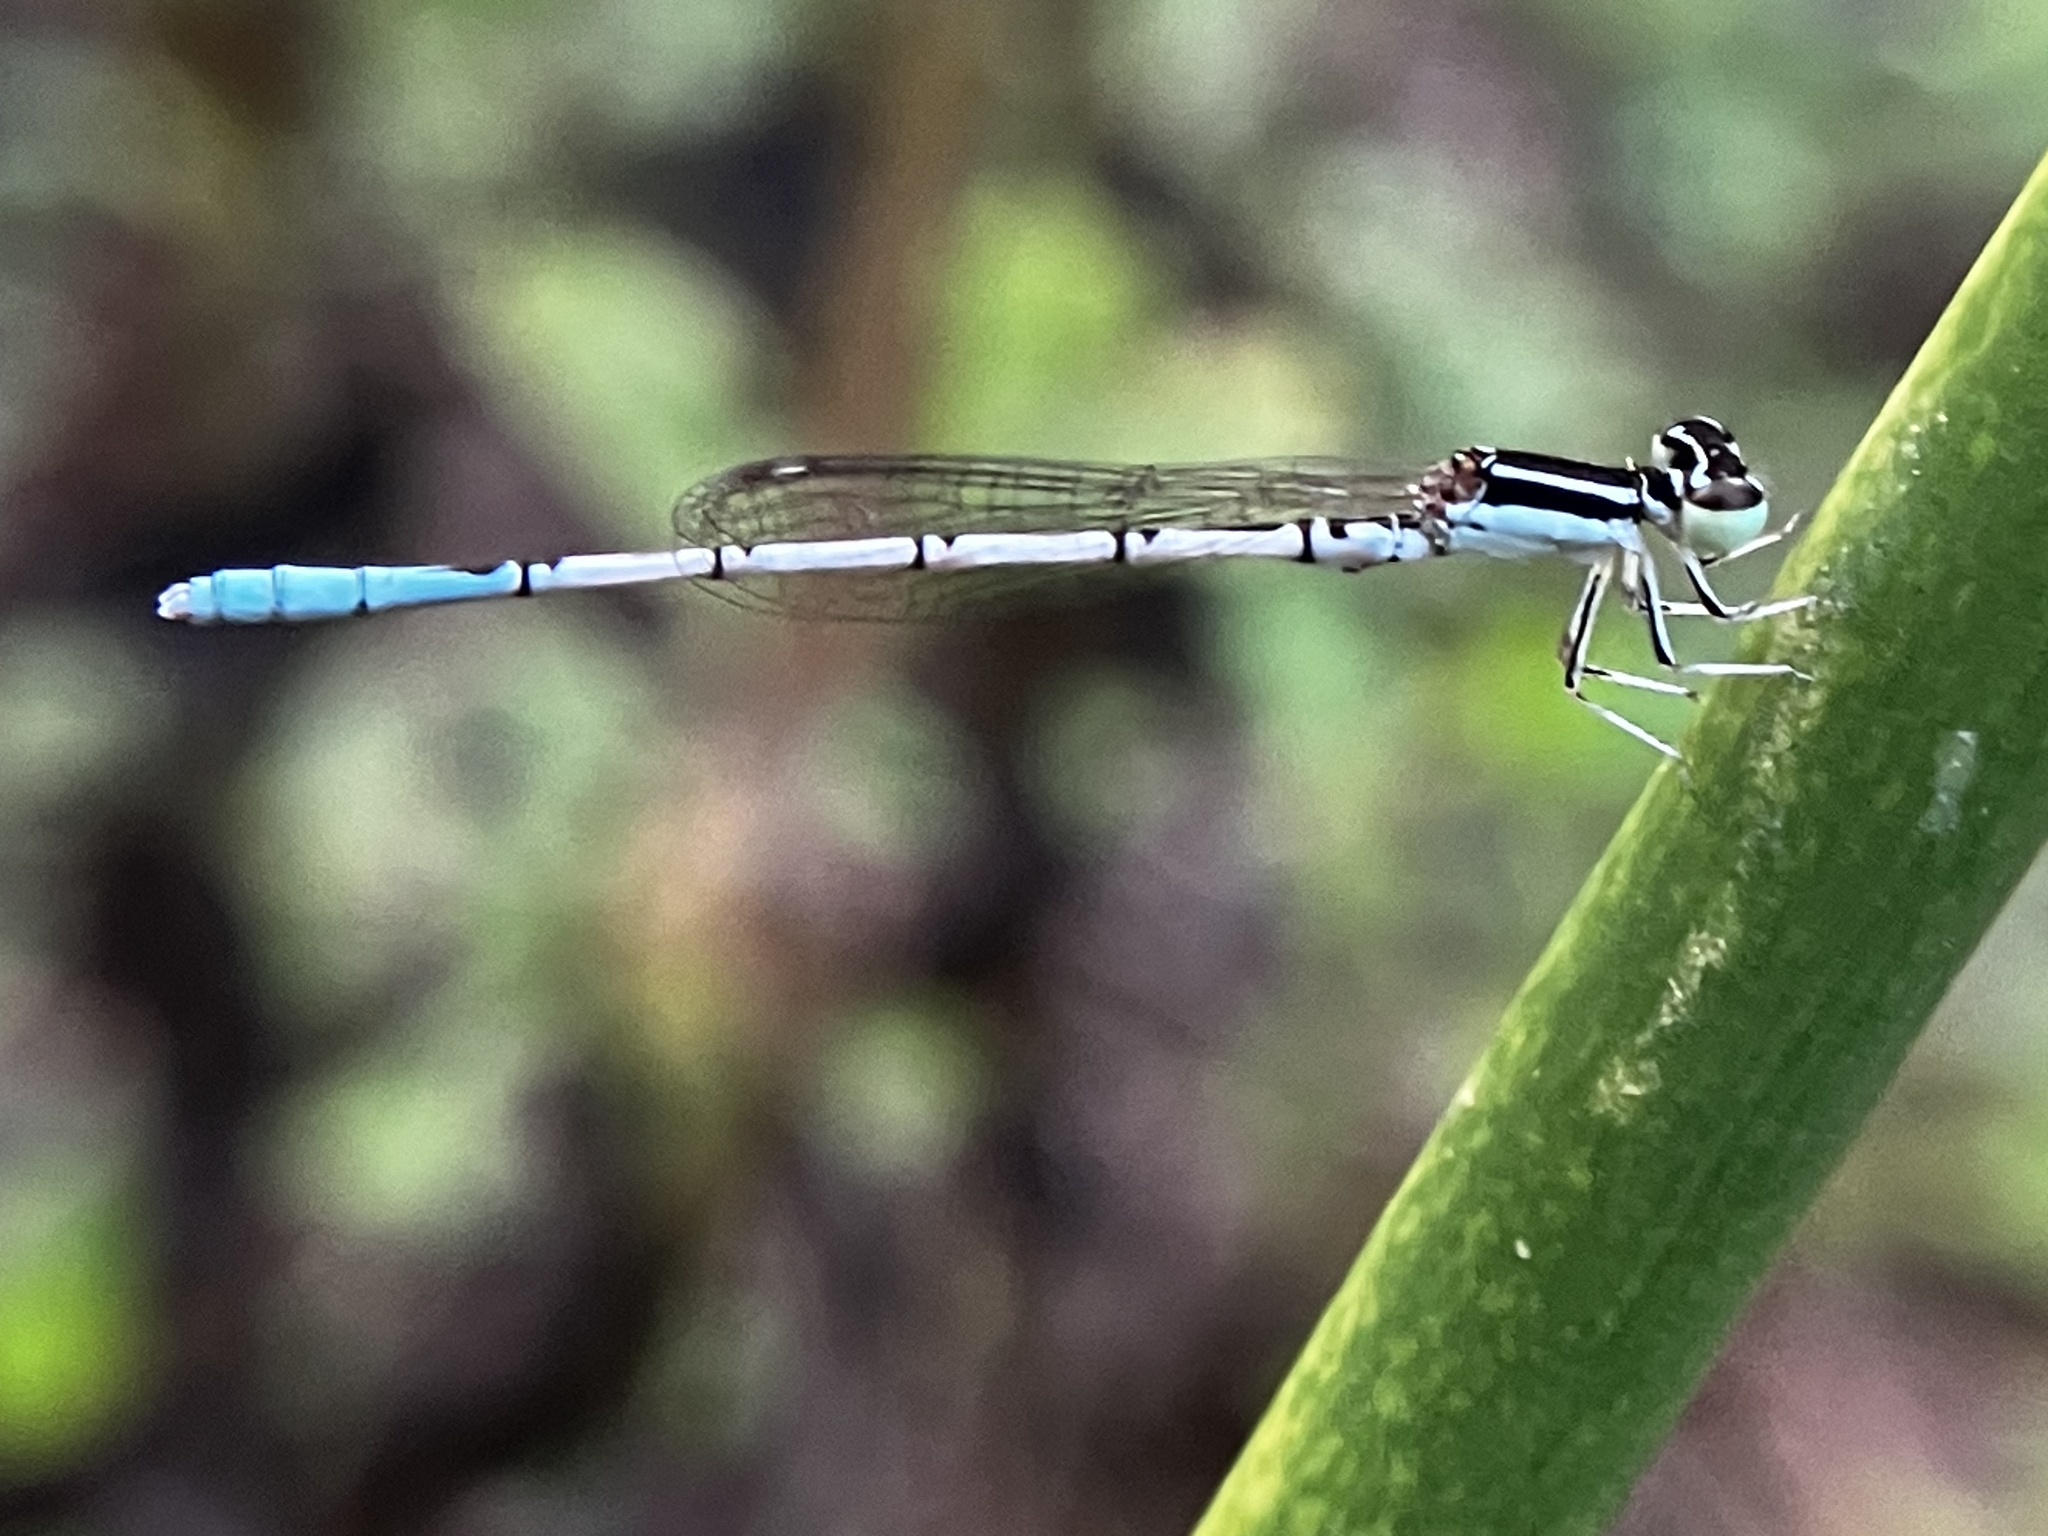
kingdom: Animalia
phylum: Arthropoda
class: Insecta
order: Odonata
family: Coenagrionidae
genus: Agriocnemis
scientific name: Agriocnemis pieris
